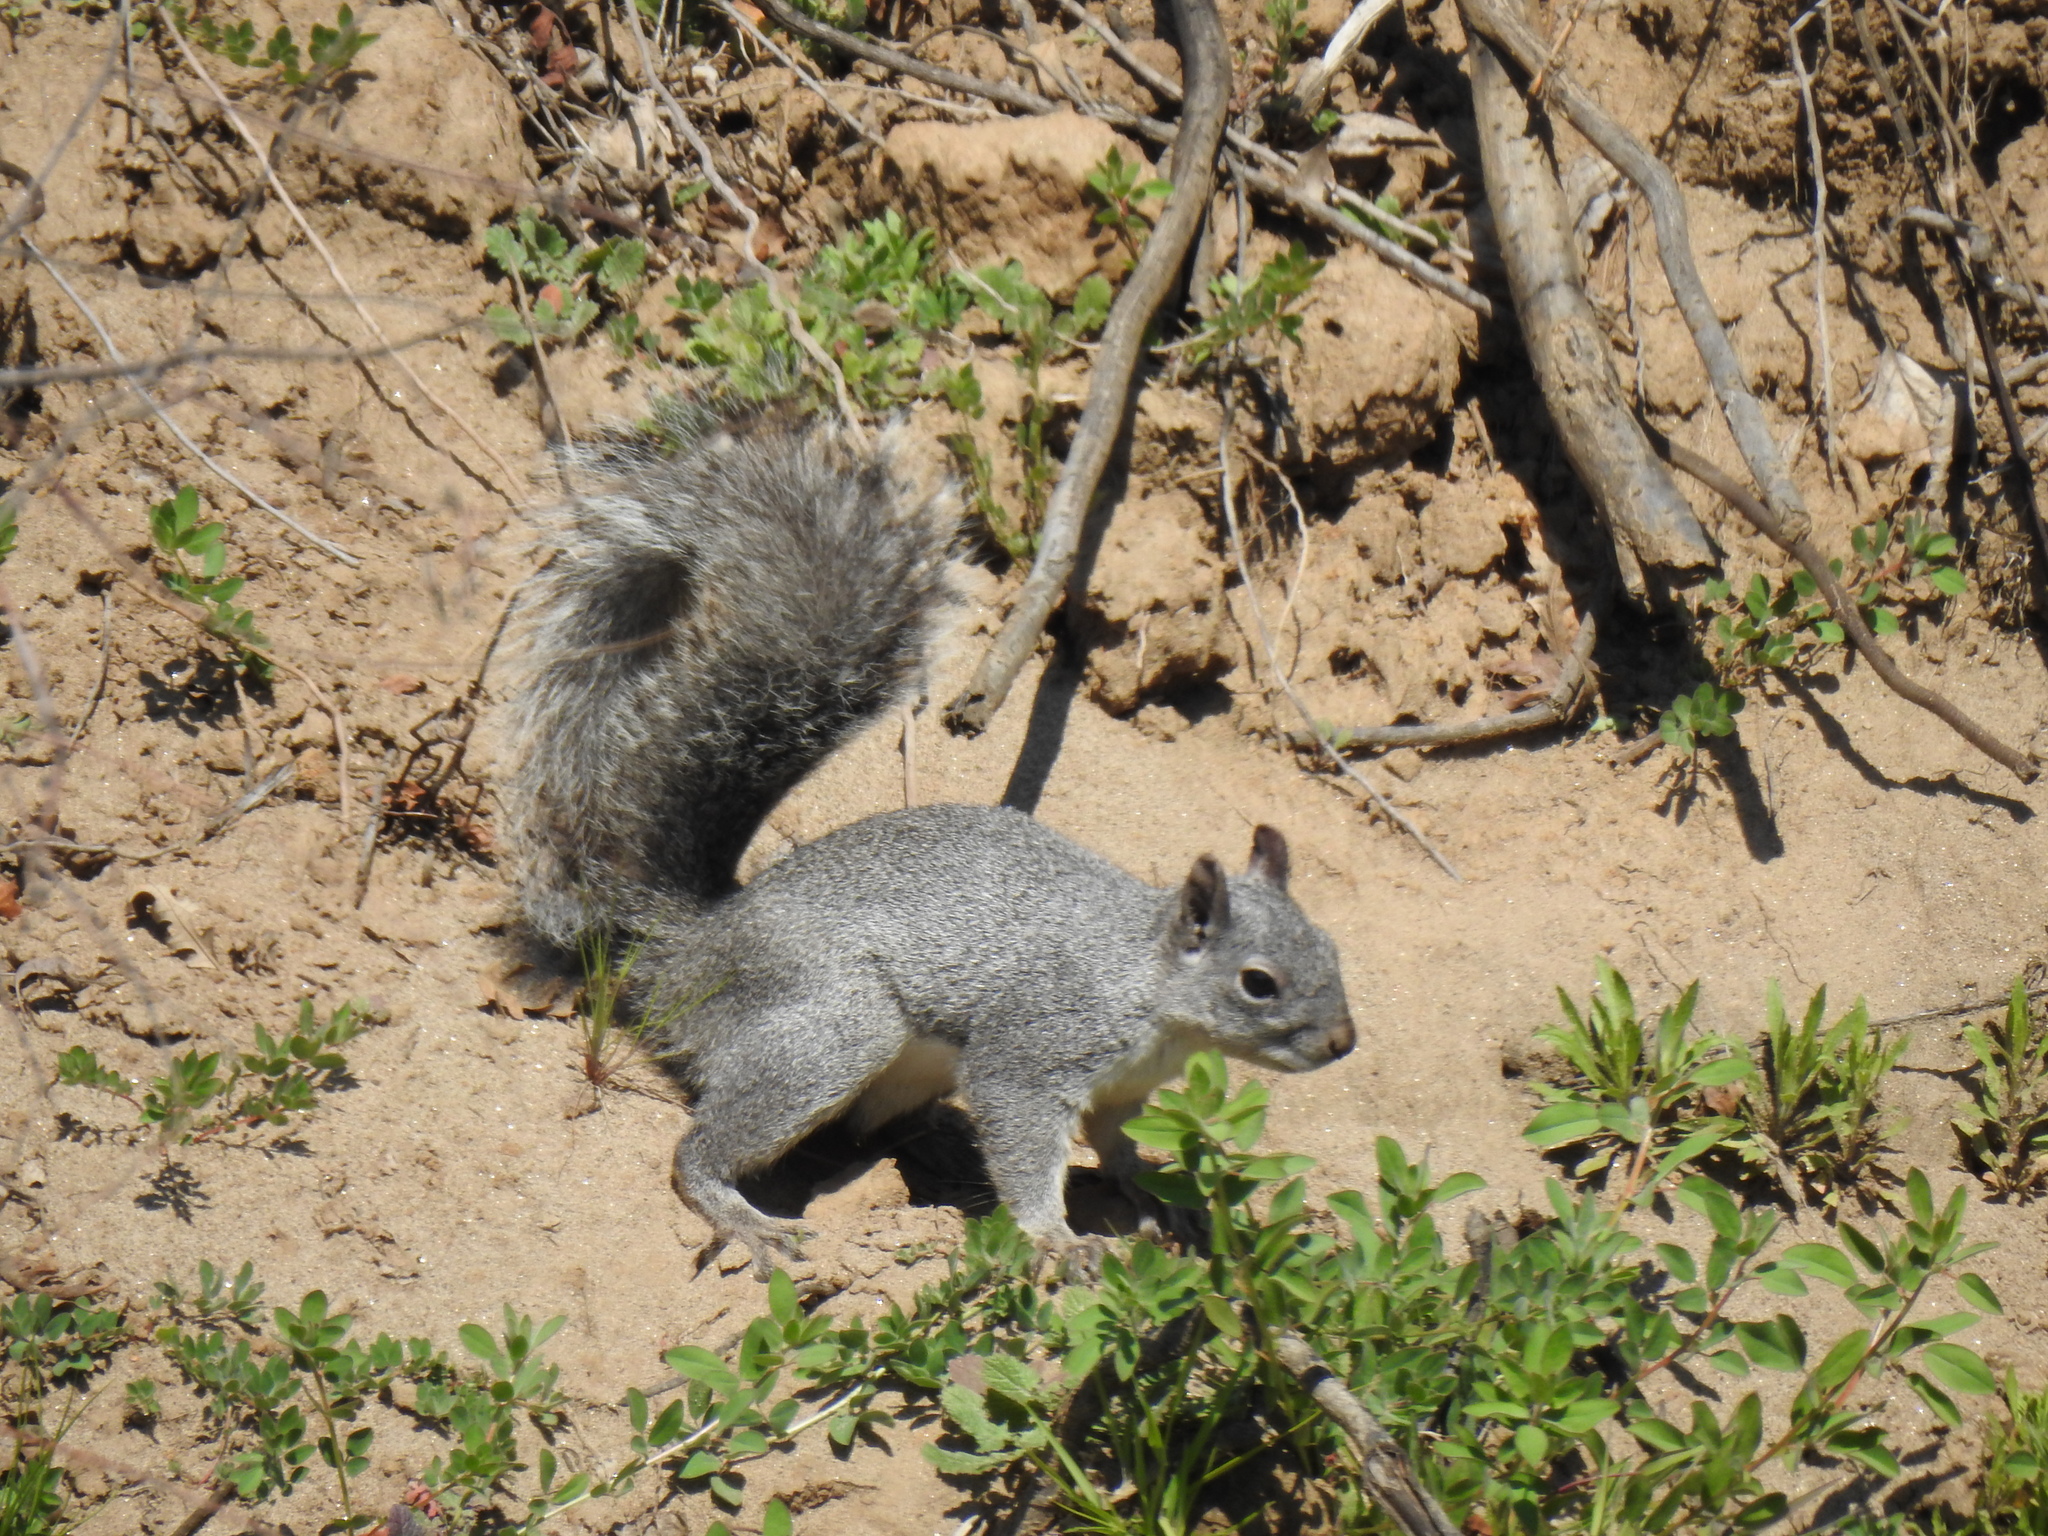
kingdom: Animalia
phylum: Chordata
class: Mammalia
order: Rodentia
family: Sciuridae
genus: Sciurus
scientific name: Sciurus griseus
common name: Western gray squirrel
